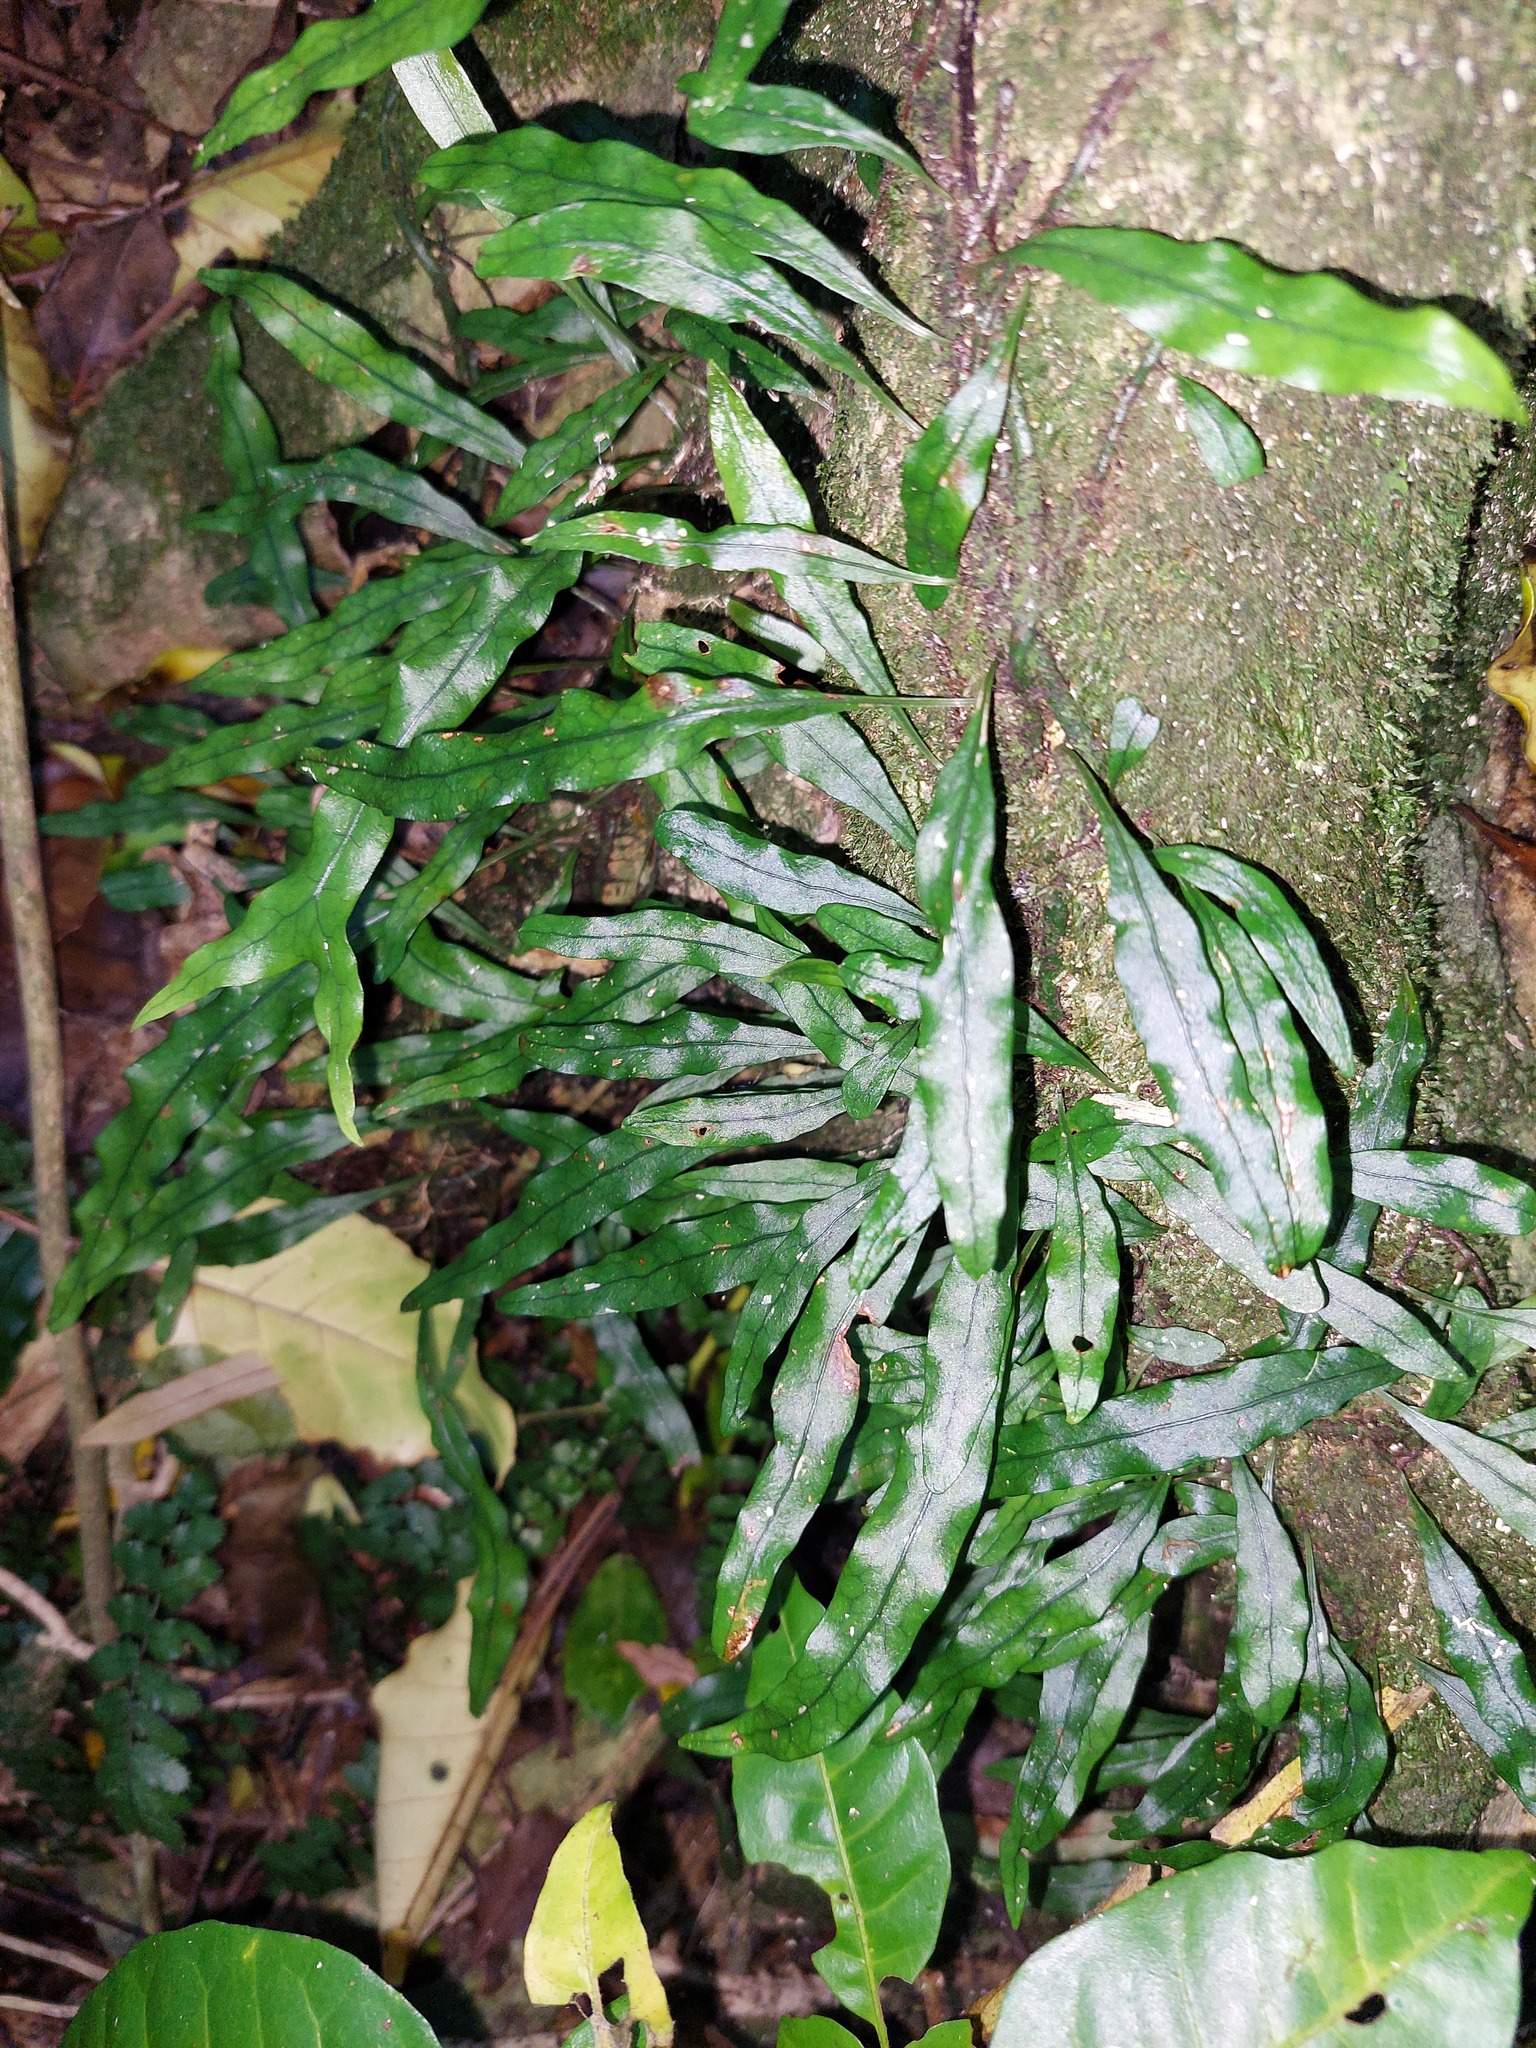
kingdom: Plantae
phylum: Tracheophyta
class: Polypodiopsida
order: Polypodiales
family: Polypodiaceae
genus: Lecanopteris
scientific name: Lecanopteris scandens
